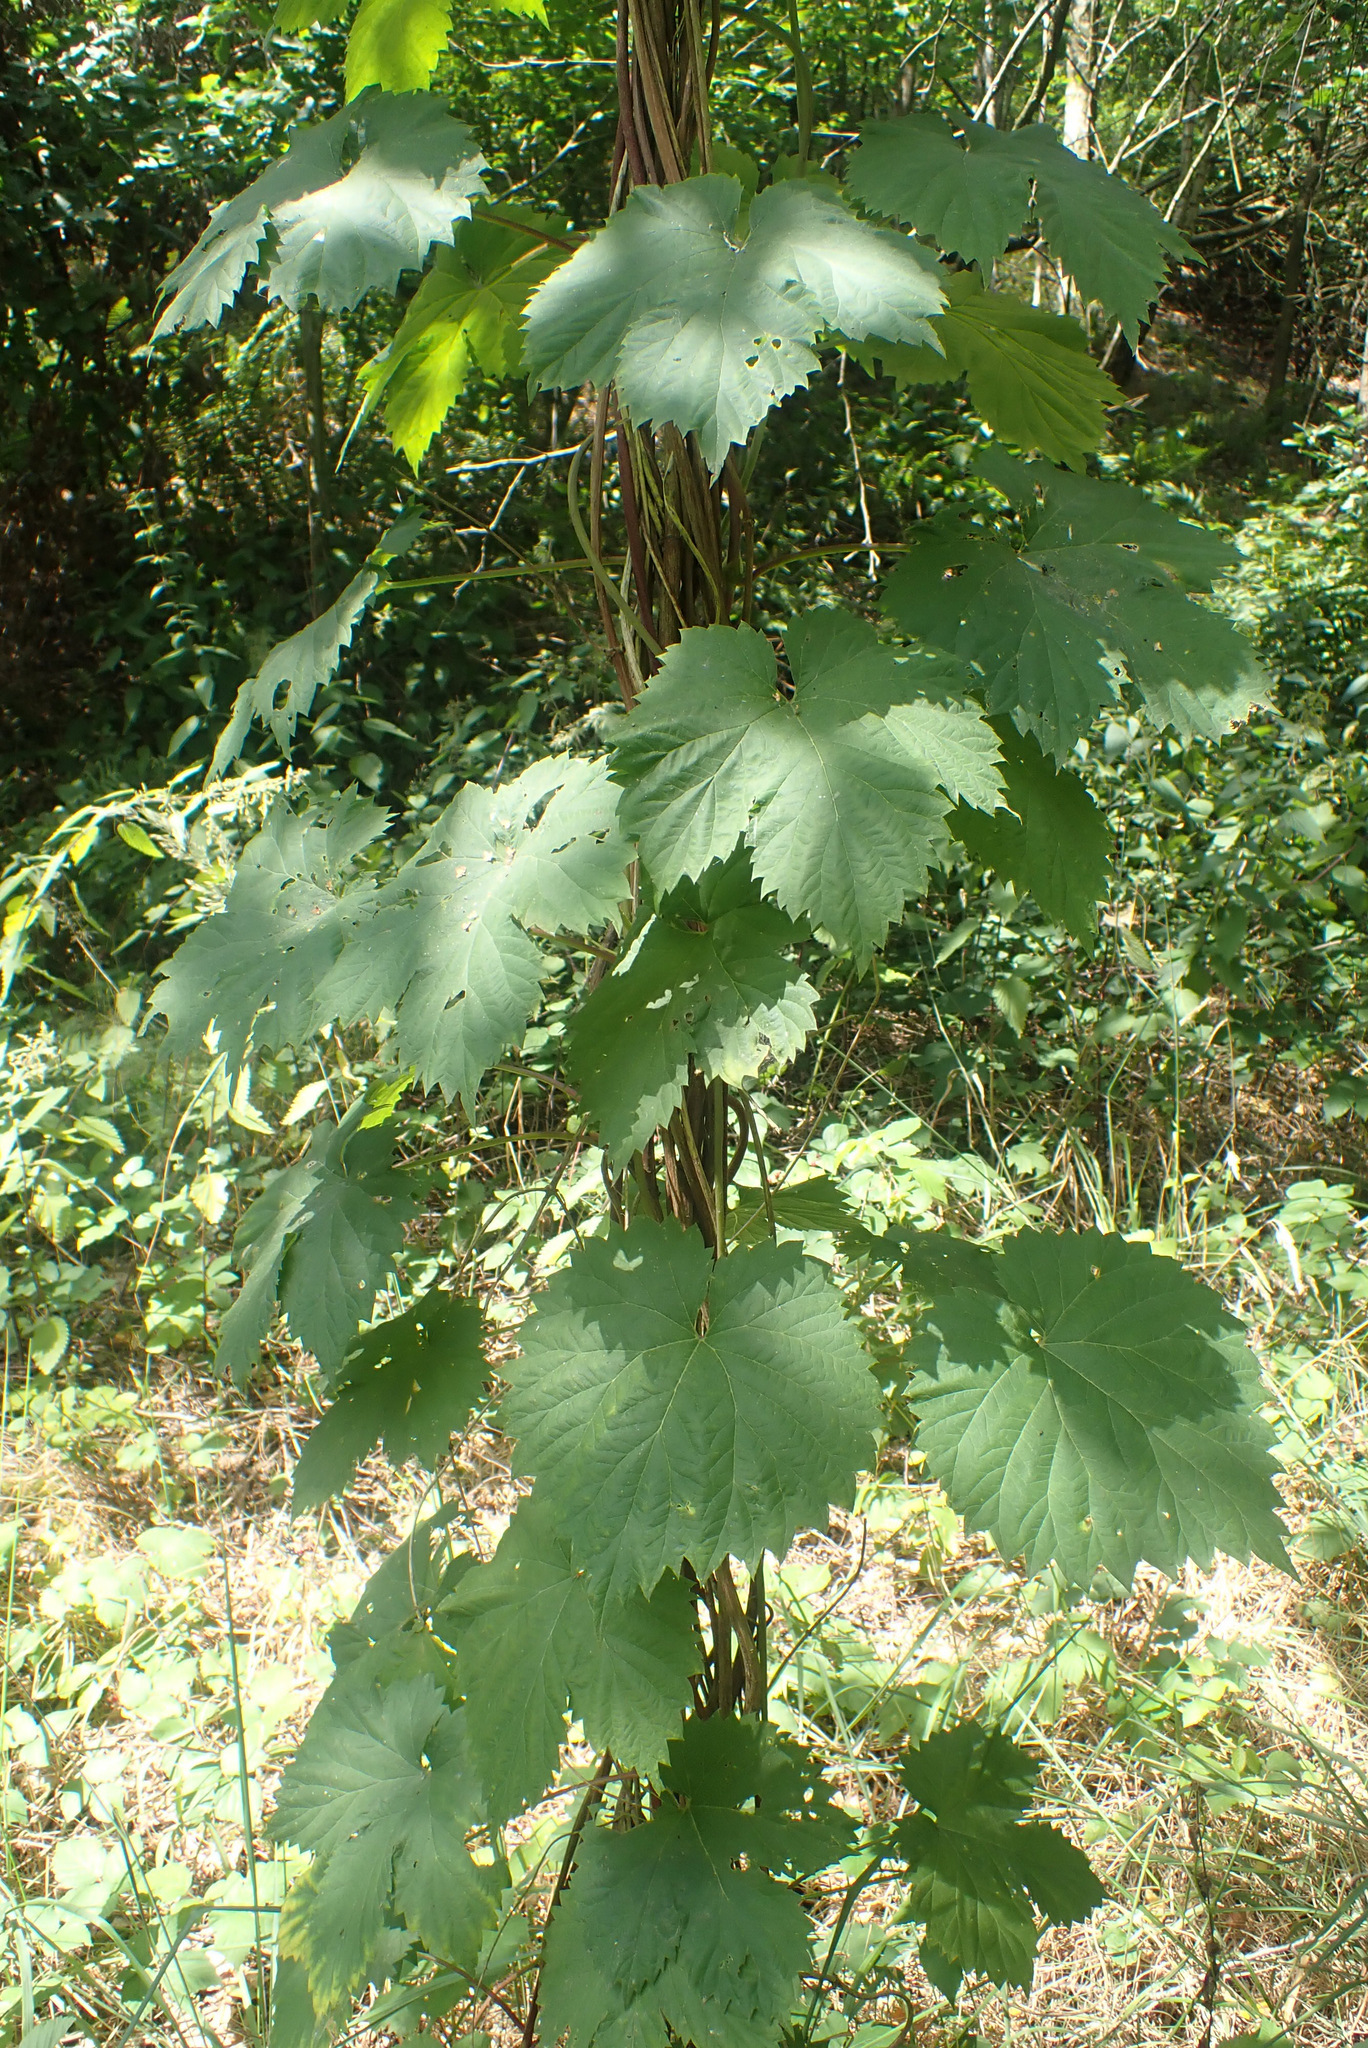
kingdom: Plantae
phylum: Tracheophyta
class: Magnoliopsida
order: Rosales
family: Cannabaceae
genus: Humulus
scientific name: Humulus lupulus
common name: Hop
